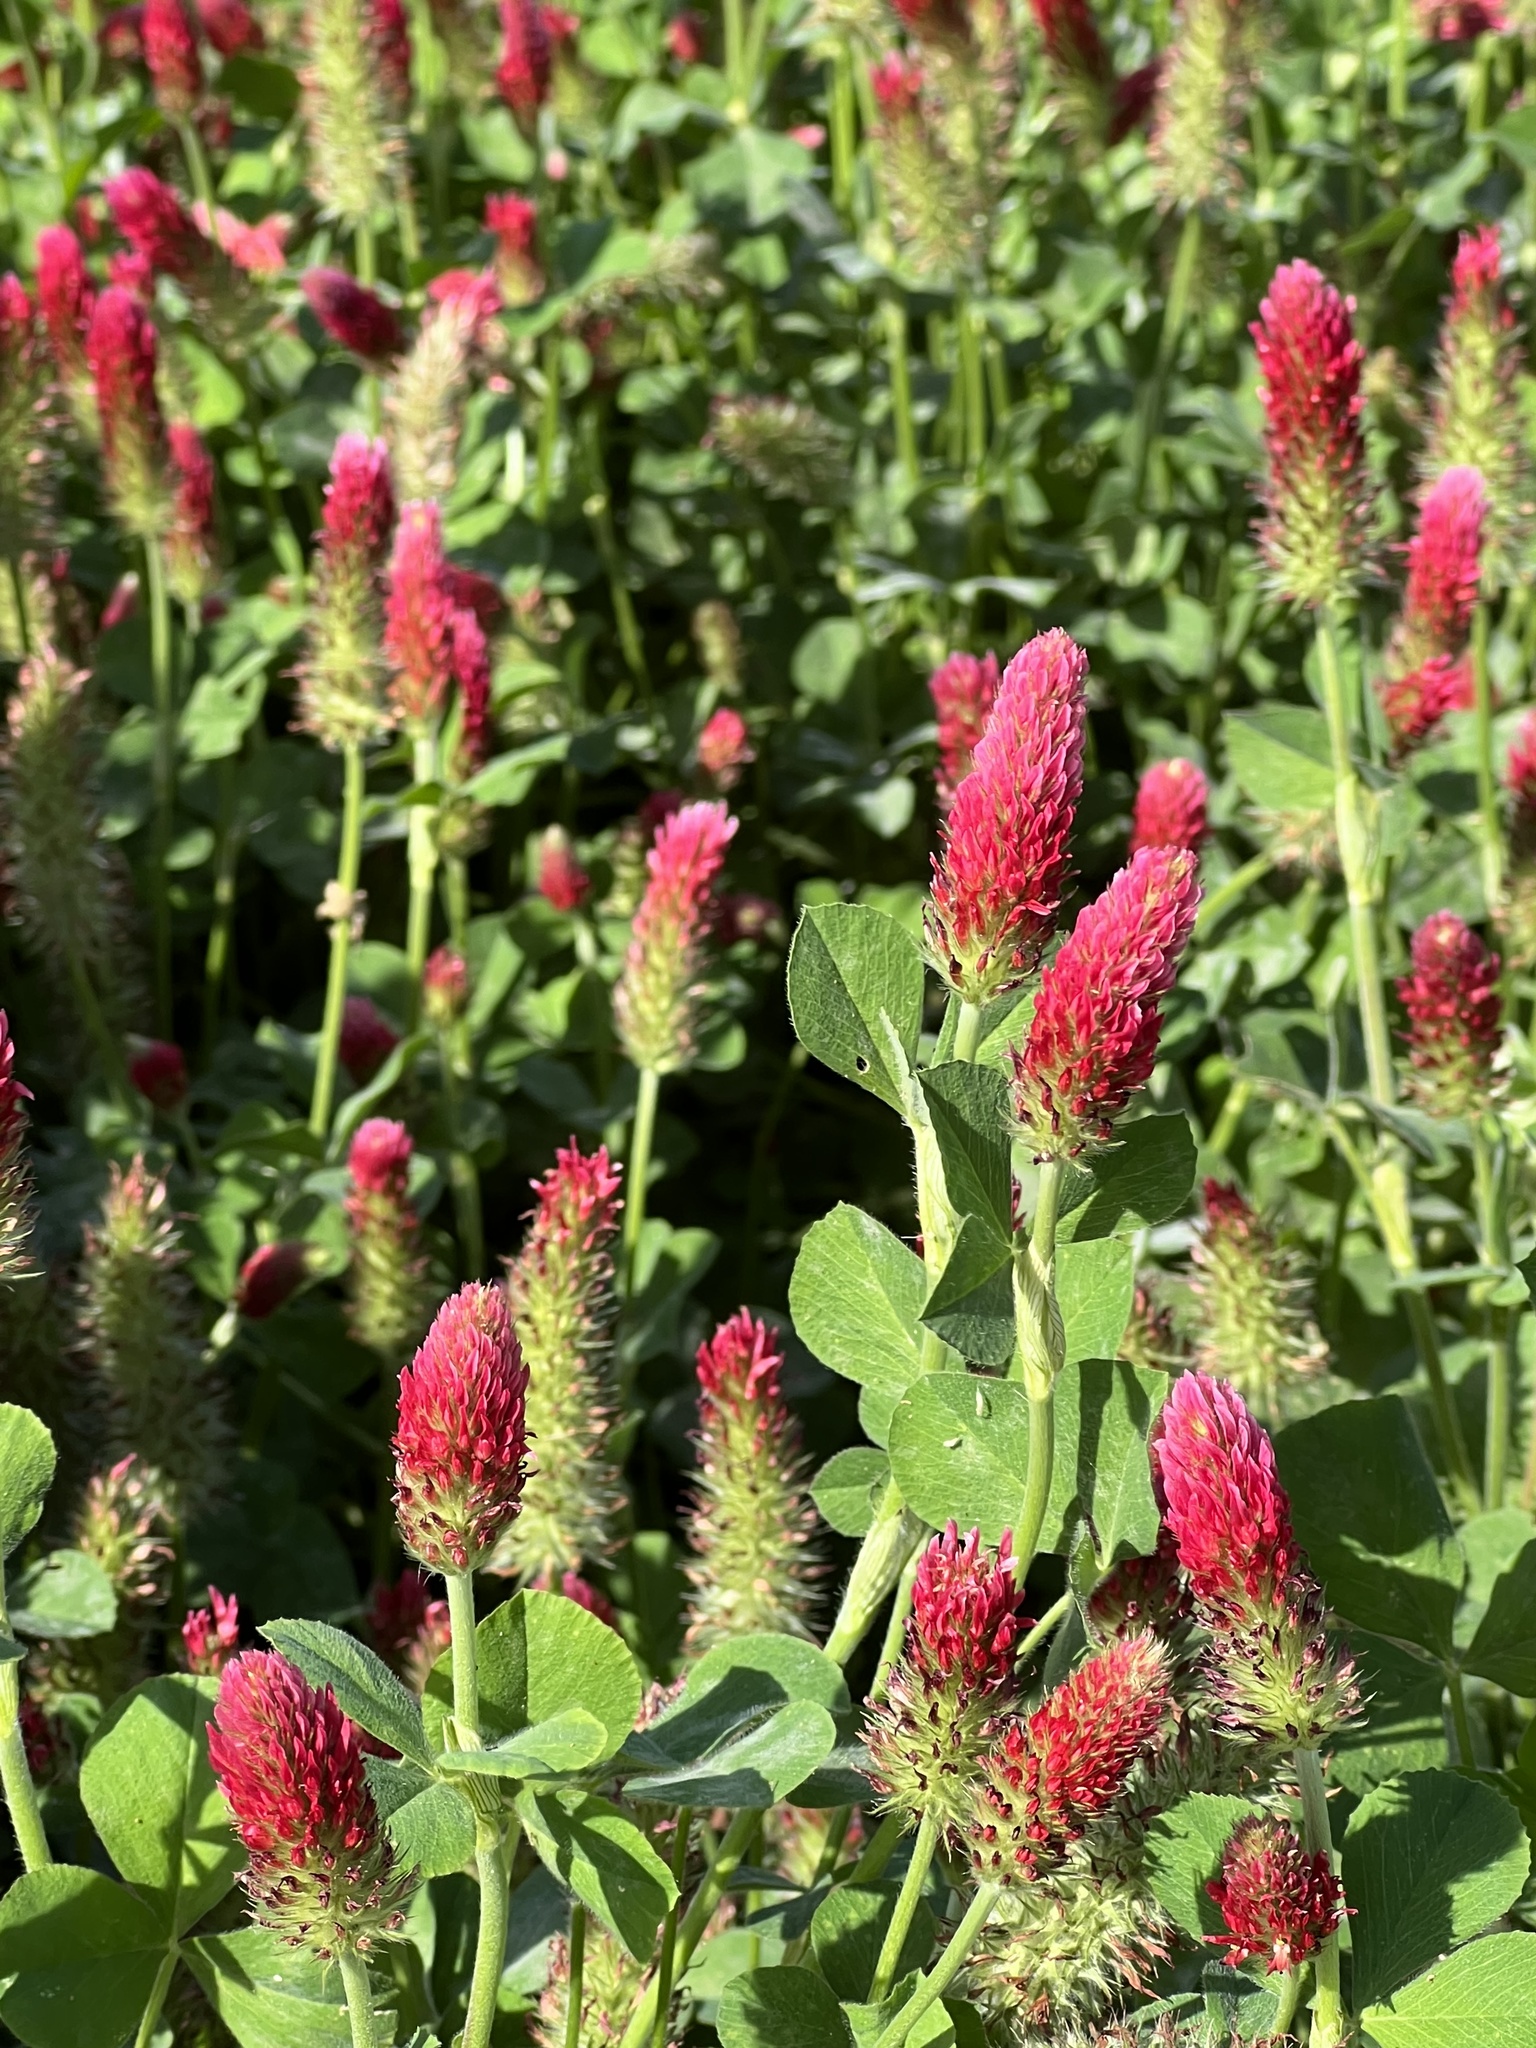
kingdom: Plantae
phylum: Tracheophyta
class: Magnoliopsida
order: Fabales
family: Fabaceae
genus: Trifolium
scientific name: Trifolium incarnatum
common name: Crimson clover
